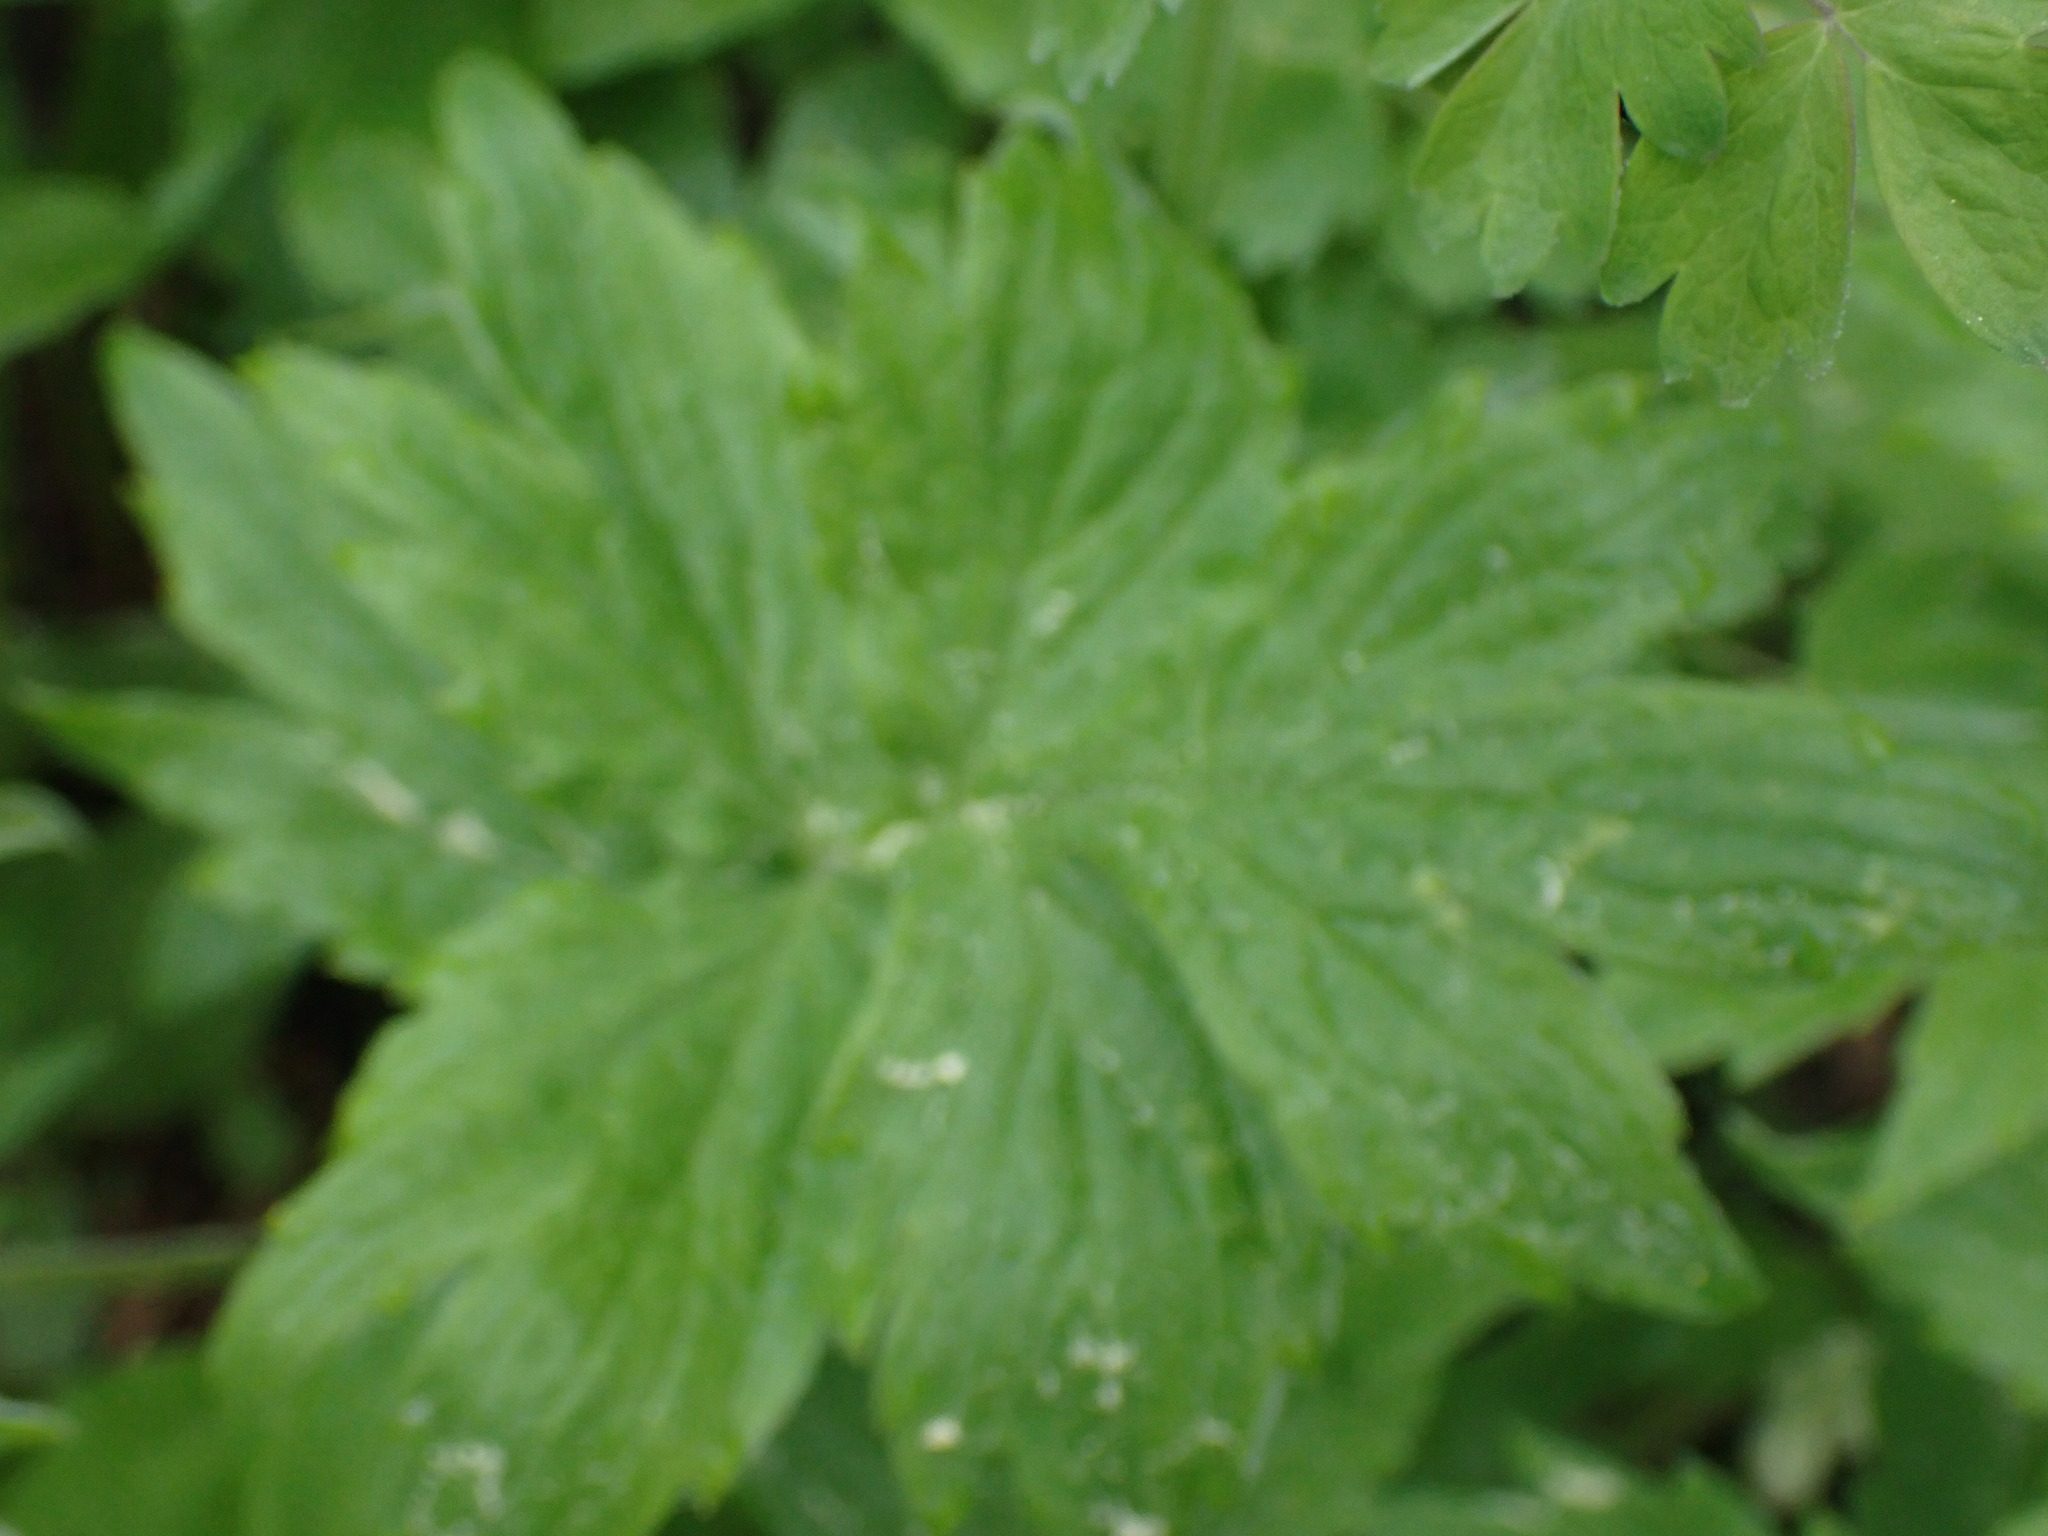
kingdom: Plantae
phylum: Tracheophyta
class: Magnoliopsida
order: Boraginales
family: Hydrophyllaceae
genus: Hydrophyllum
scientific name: Hydrophyllum fendleri
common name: Fendler's waterleaf
